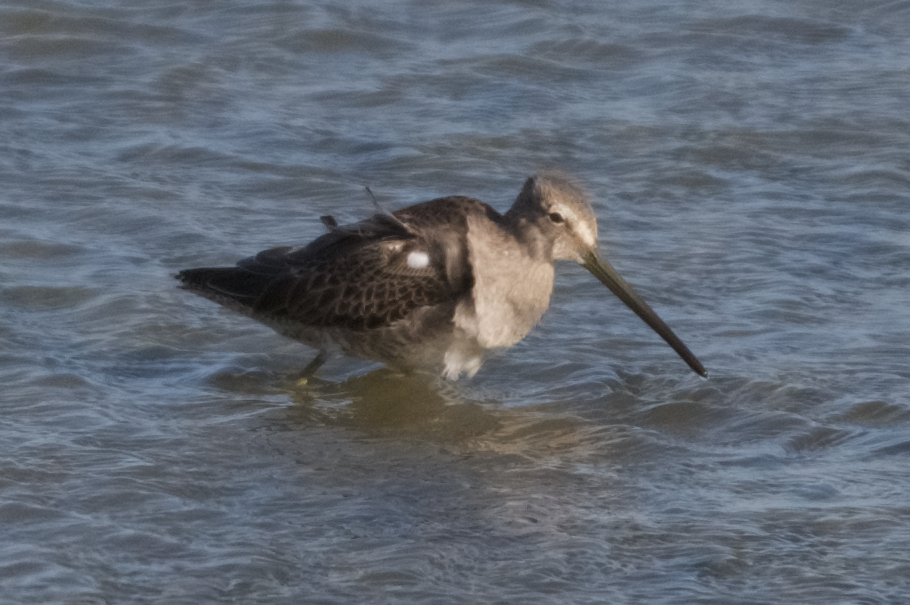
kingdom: Animalia
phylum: Chordata
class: Aves
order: Charadriiformes
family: Scolopacidae
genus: Limnodromus
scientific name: Limnodromus scolopaceus
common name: Long-billed dowitcher
